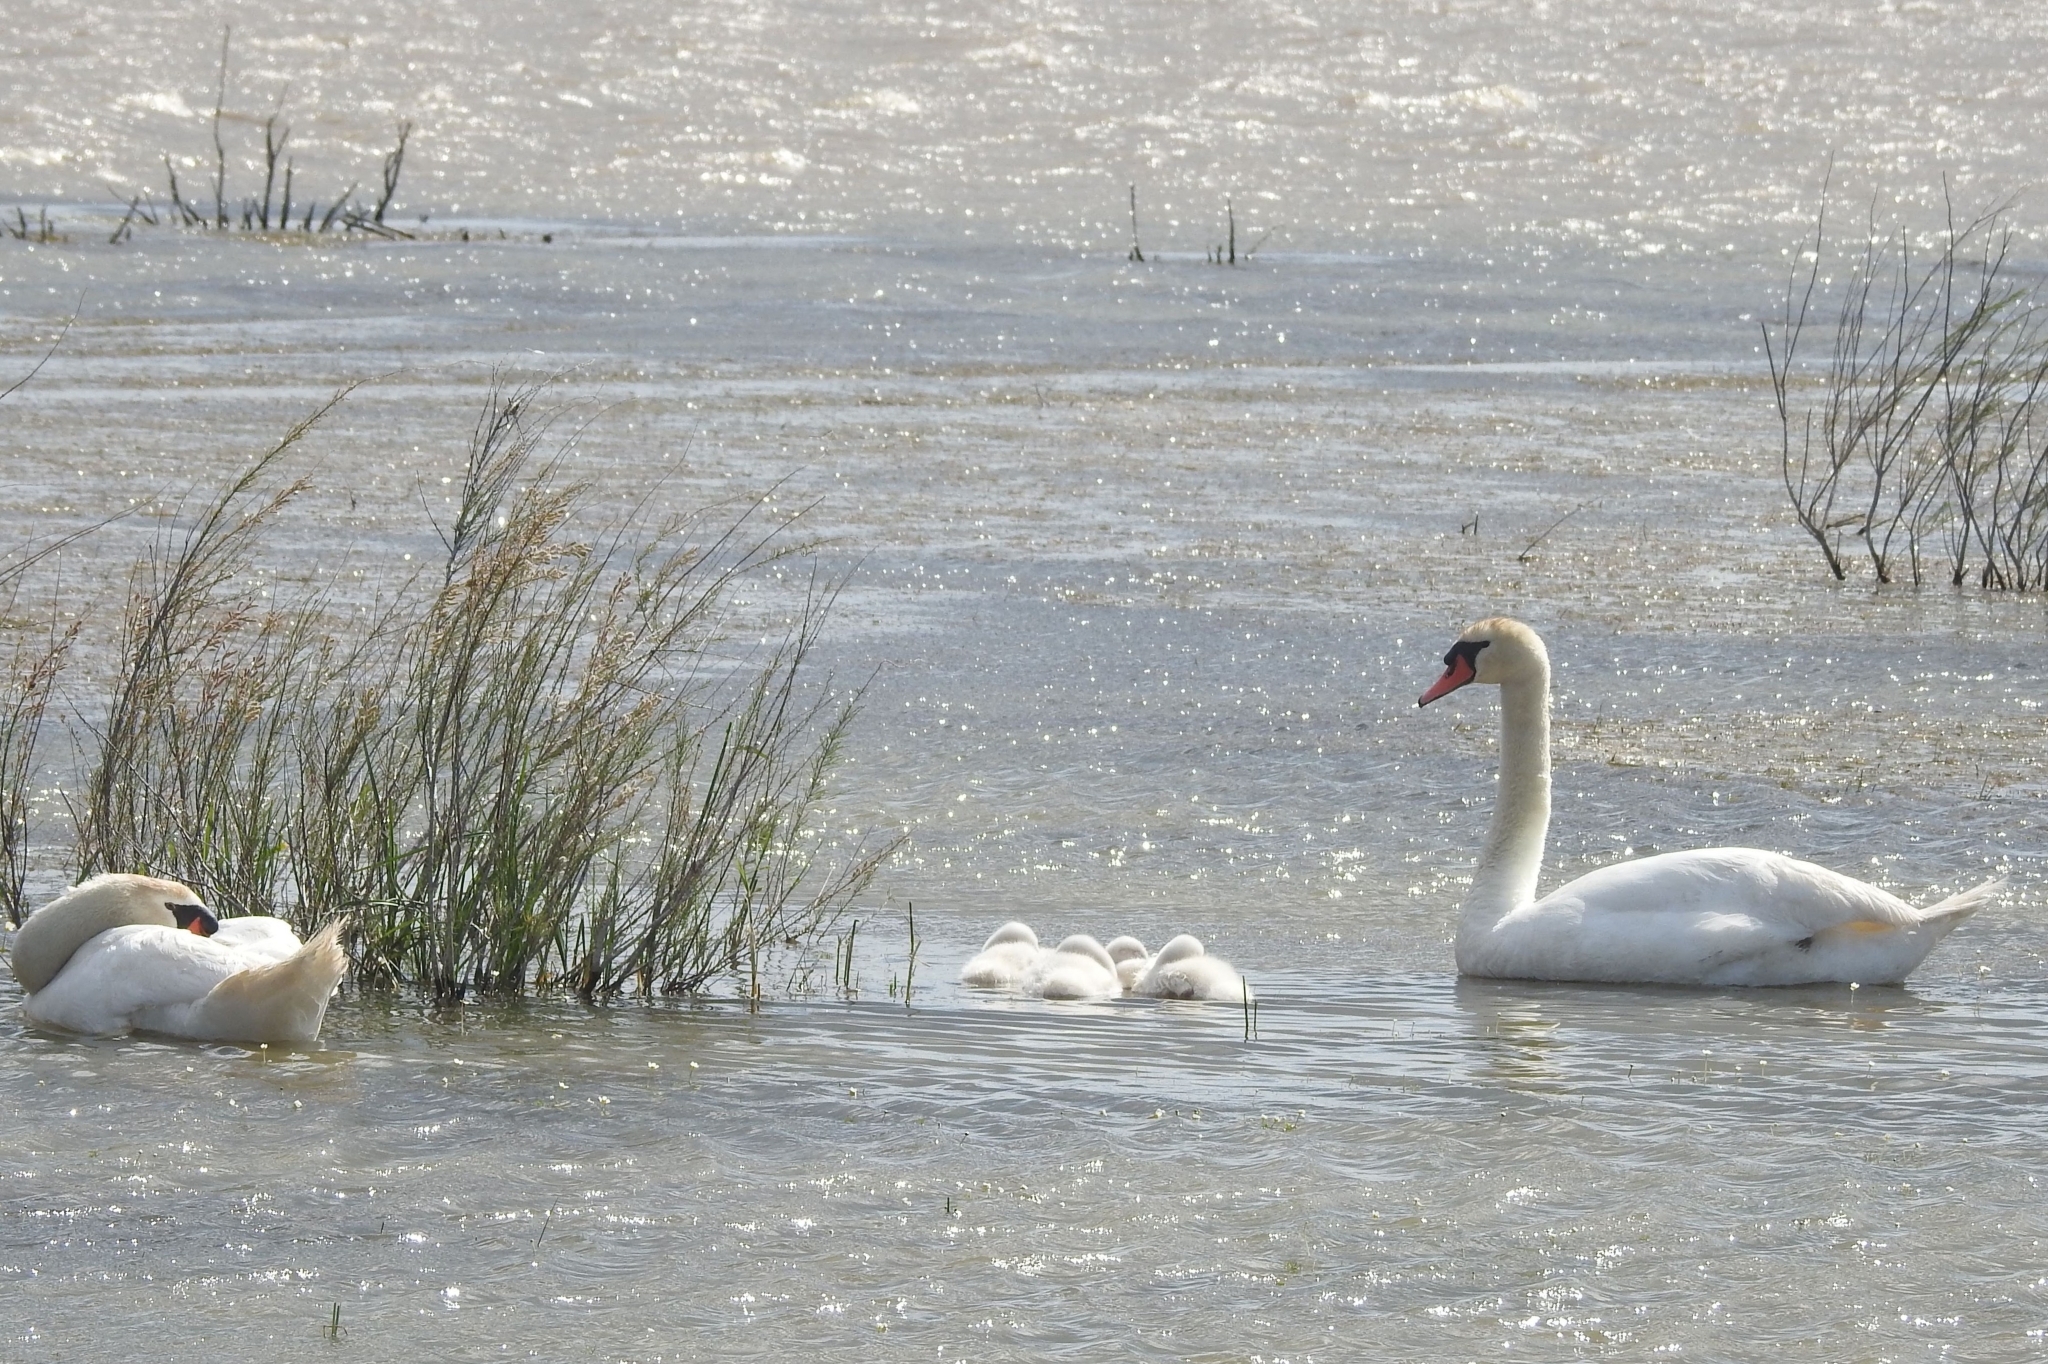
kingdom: Animalia
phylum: Chordata
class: Aves
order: Anseriformes
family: Anatidae
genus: Cygnus
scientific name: Cygnus olor
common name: Mute swan
